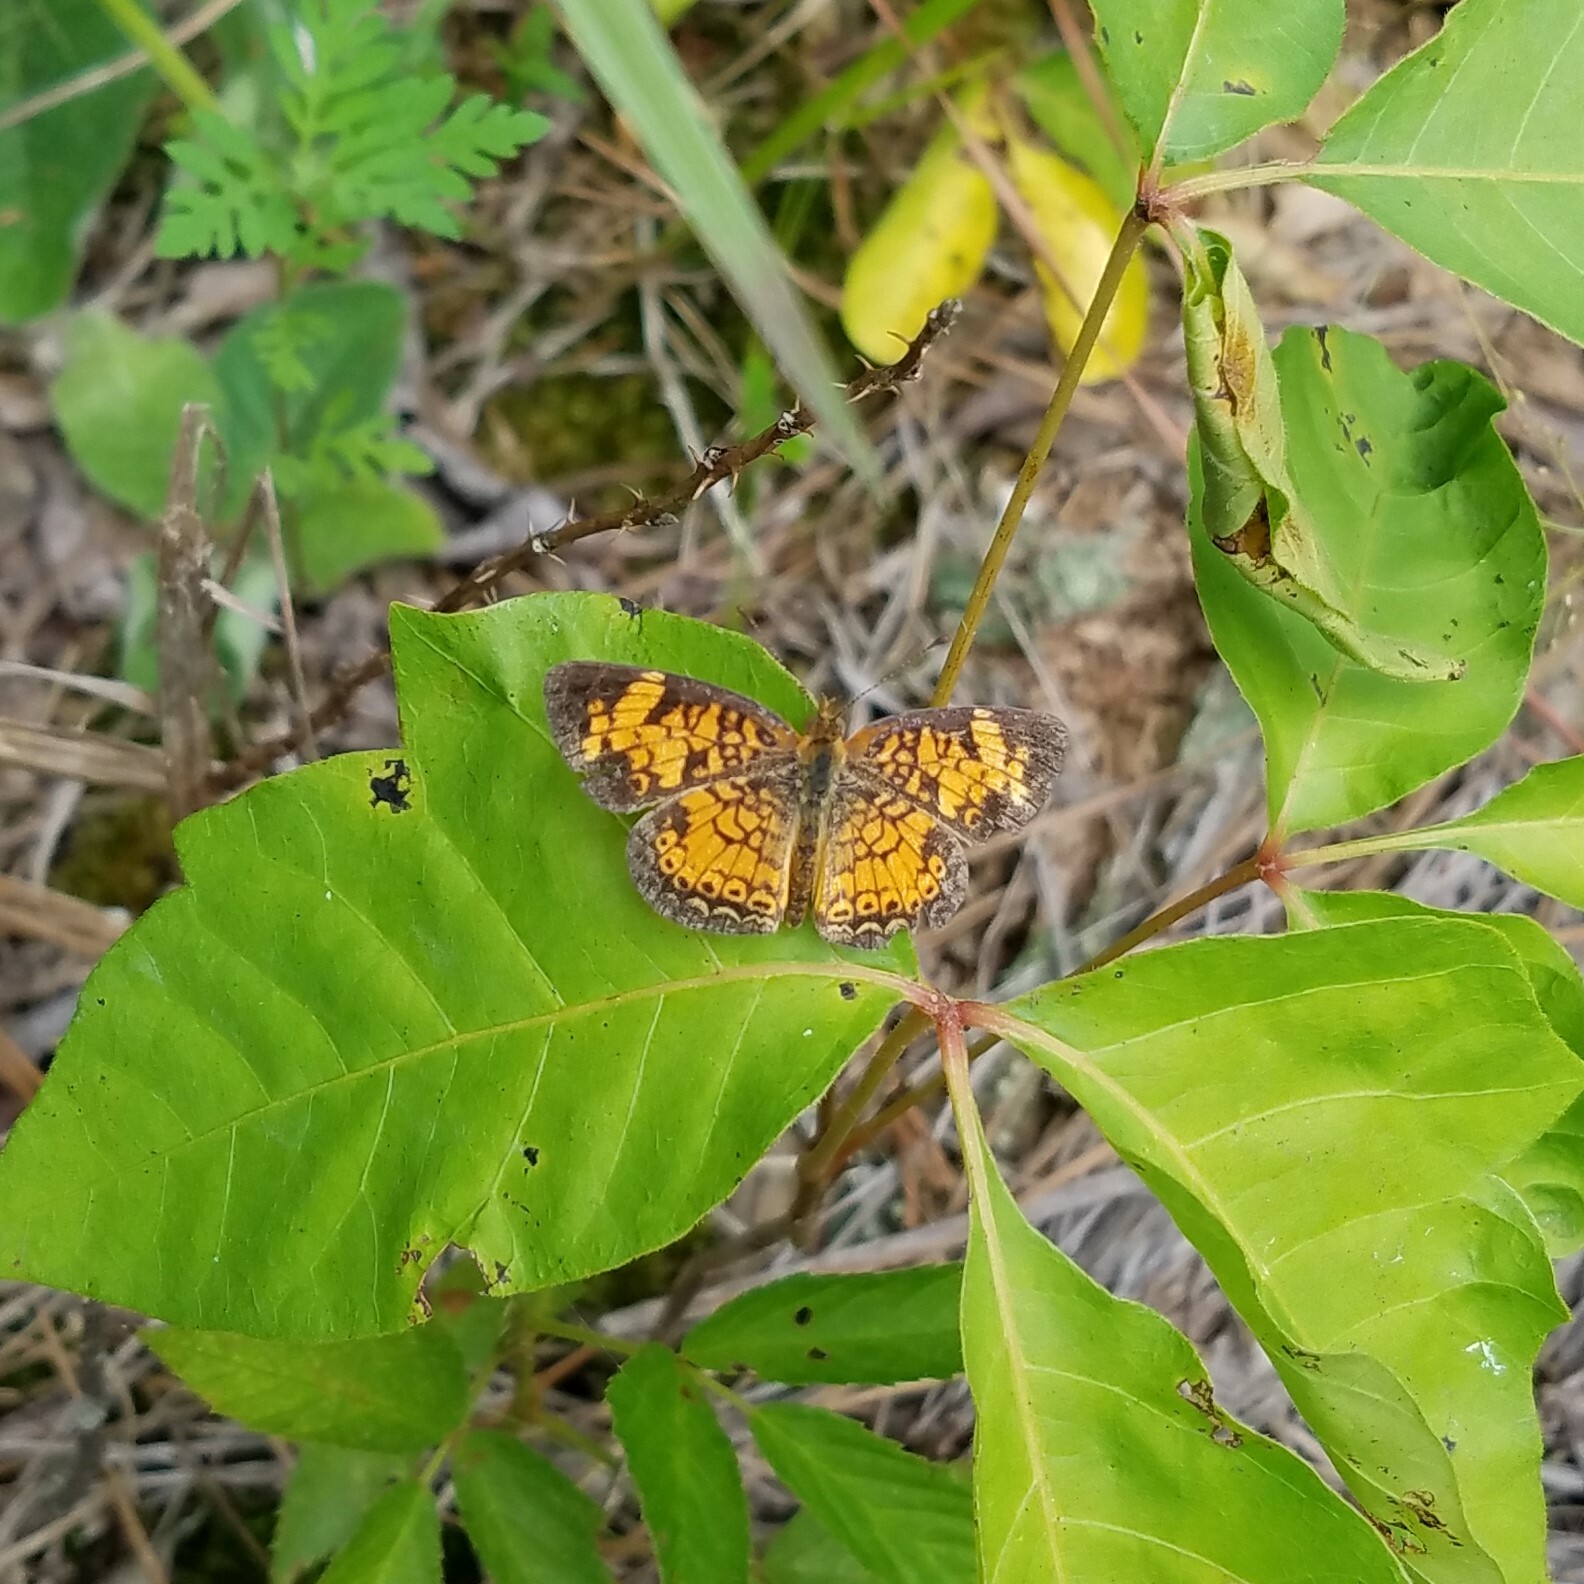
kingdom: Animalia
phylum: Arthropoda
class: Insecta
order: Lepidoptera
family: Nymphalidae
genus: Phyciodes
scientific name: Phyciodes tharos
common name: Pearl crescent
